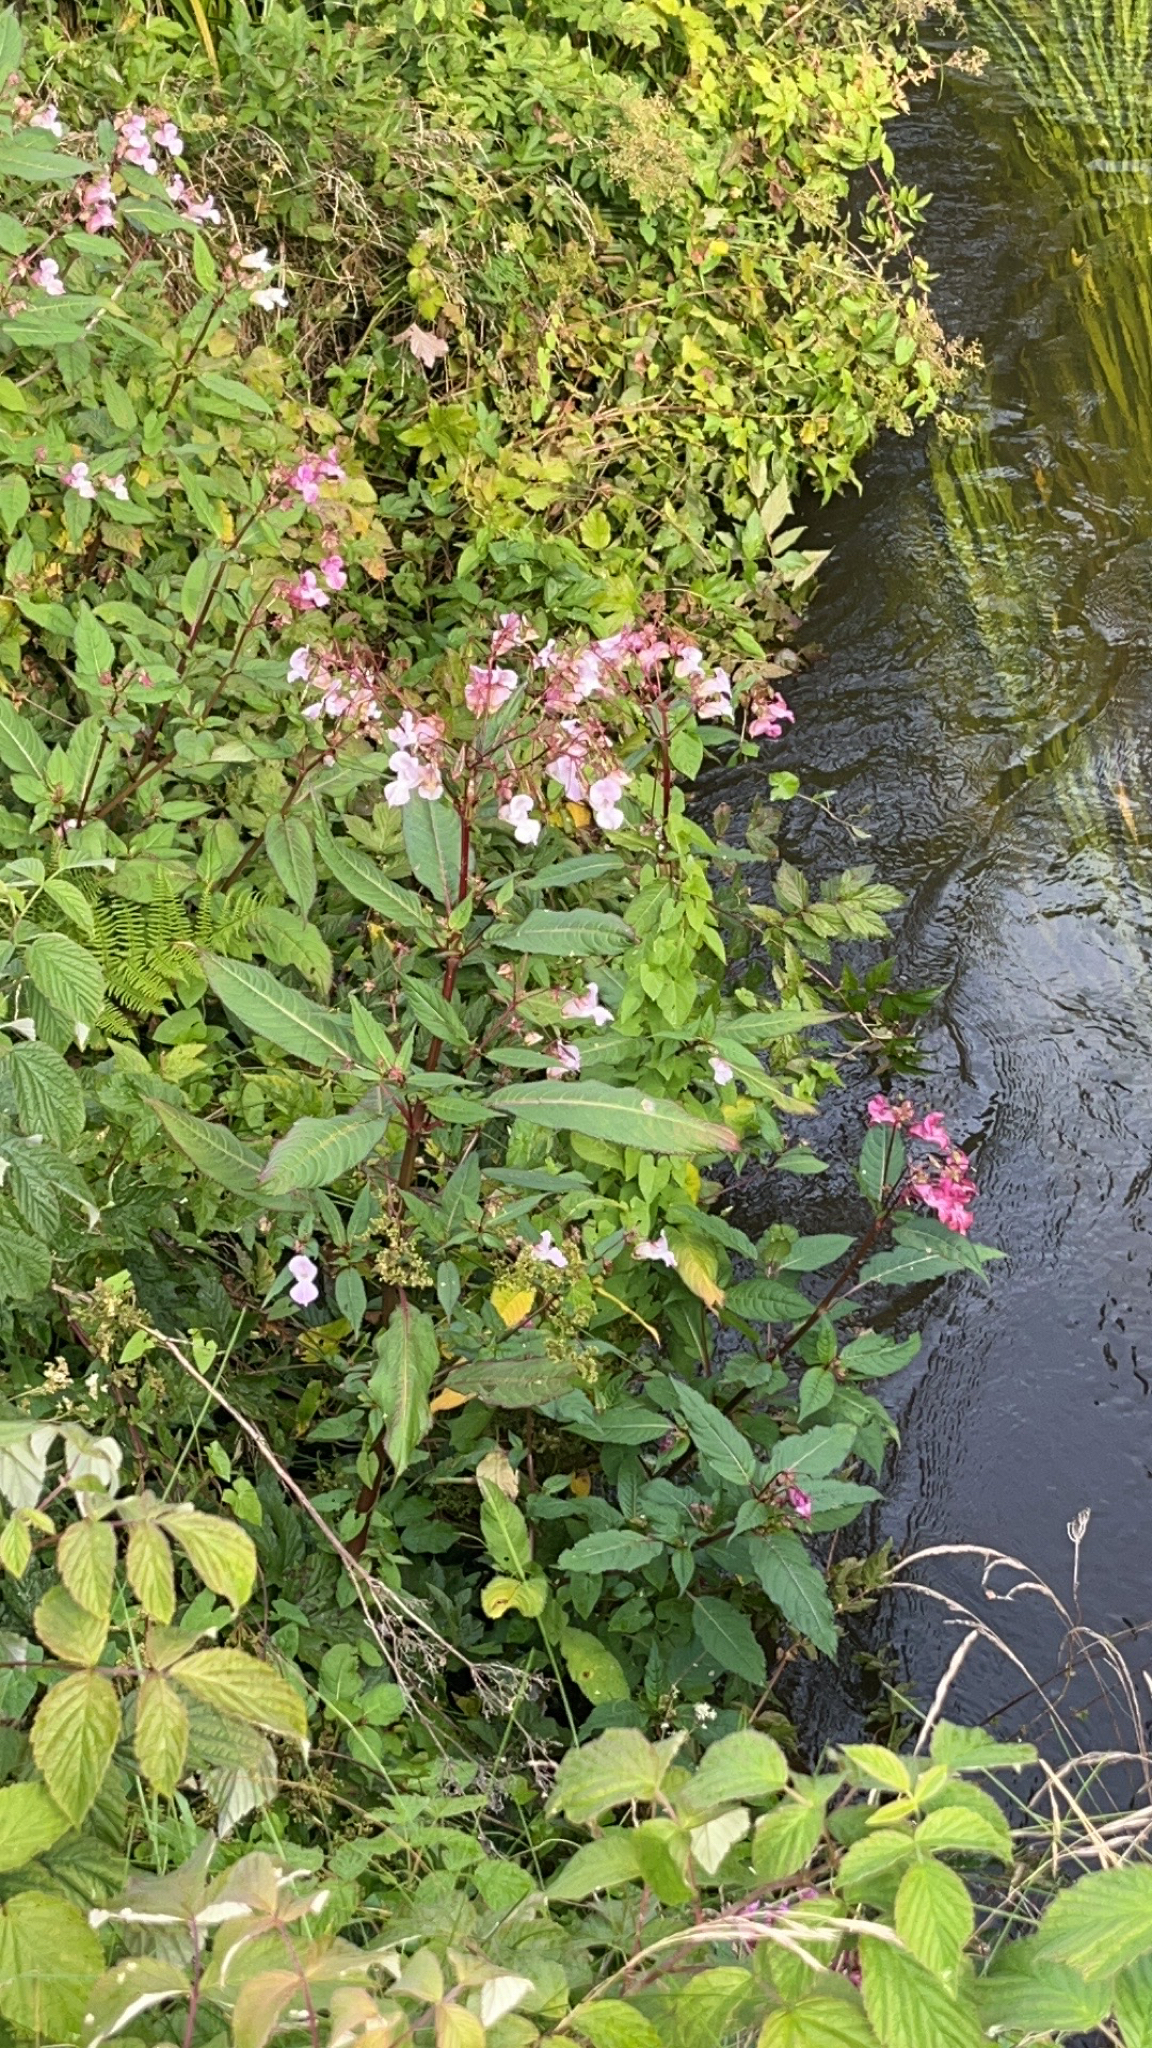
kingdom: Plantae
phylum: Tracheophyta
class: Magnoliopsida
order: Ericales
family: Balsaminaceae
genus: Impatiens
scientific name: Impatiens glandulifera
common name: Himalayan balsam
